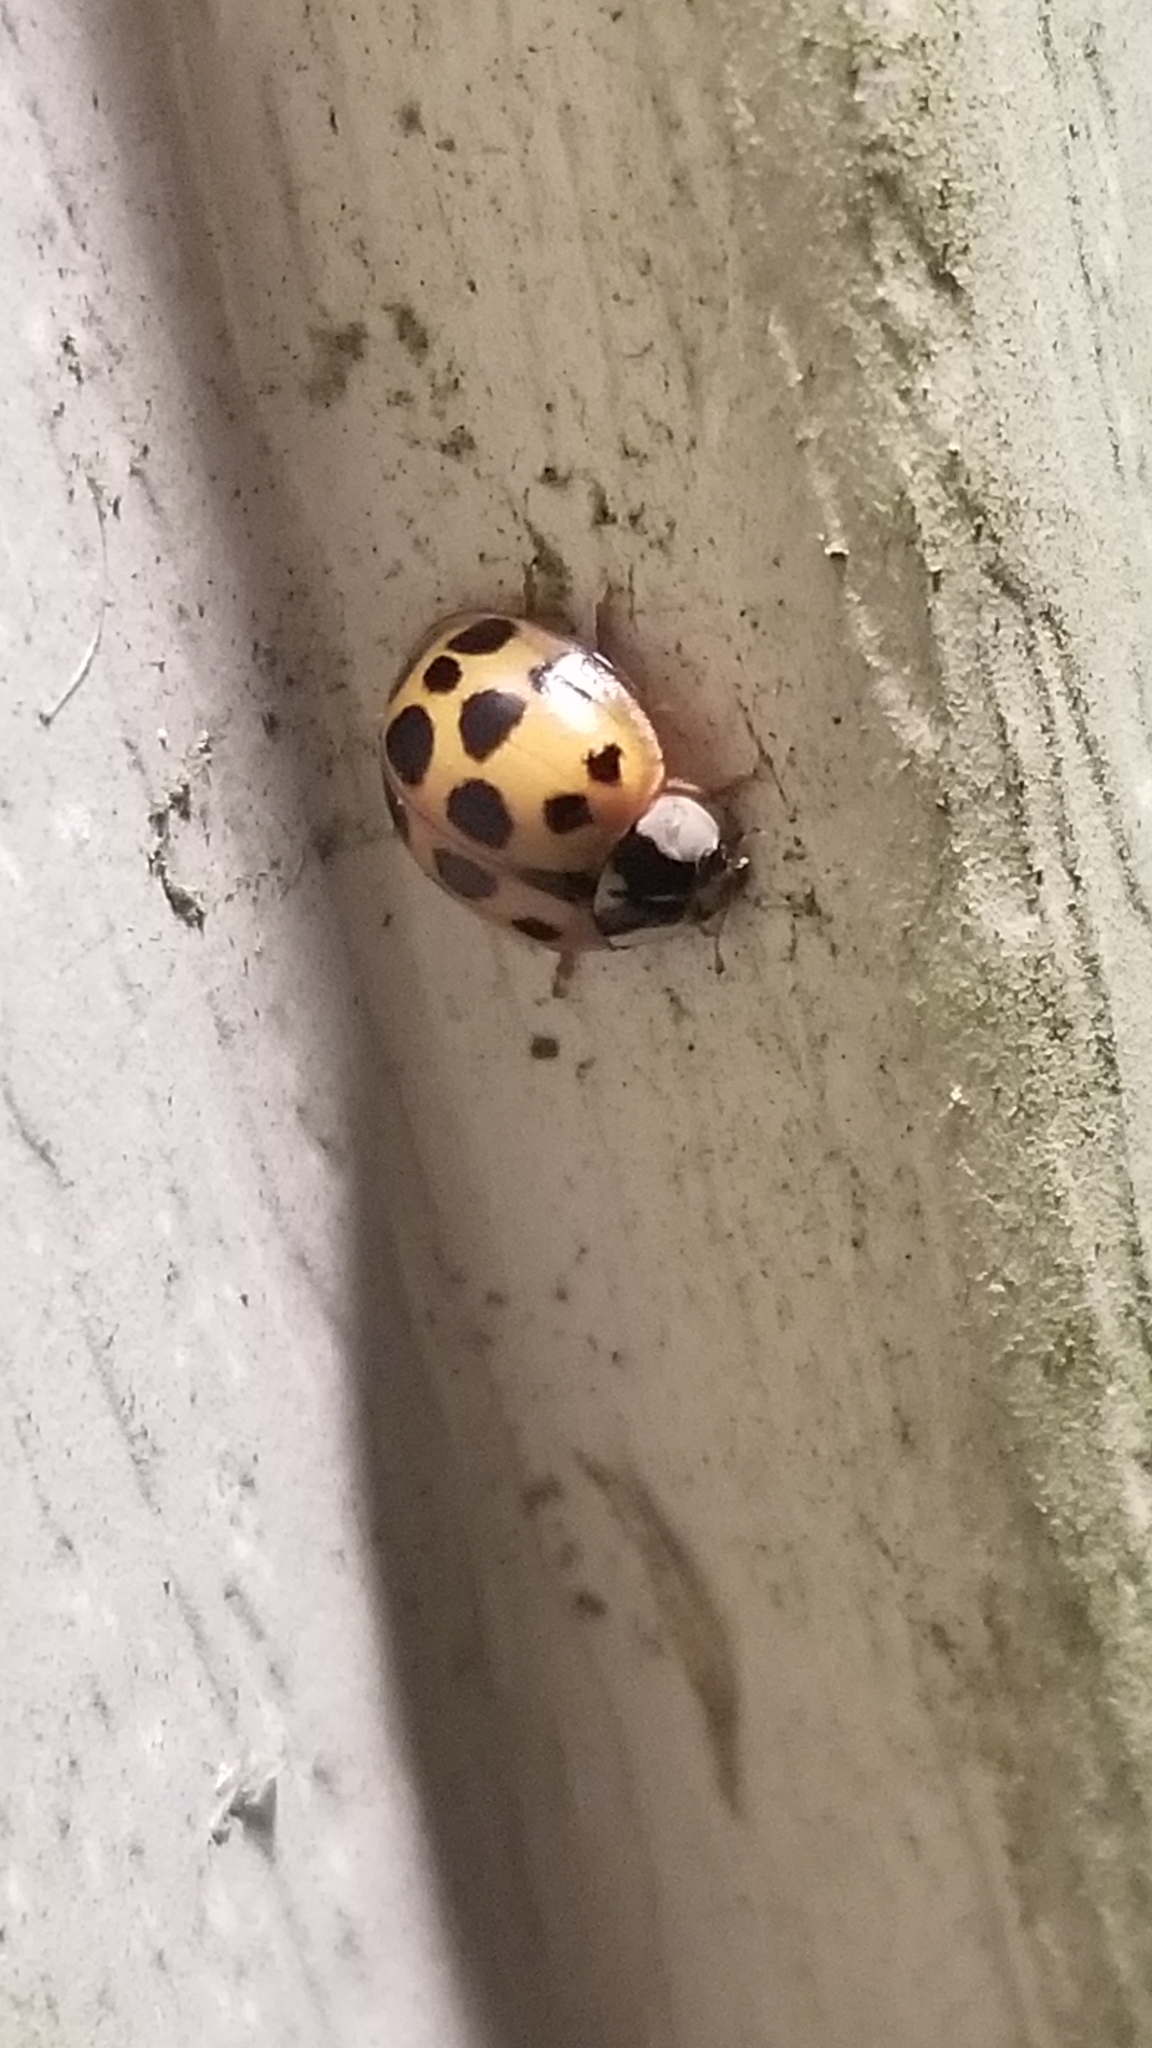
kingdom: Animalia
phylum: Arthropoda
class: Insecta
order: Coleoptera
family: Coccinellidae
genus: Harmonia
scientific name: Harmonia axyridis
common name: Harlequin ladybird
